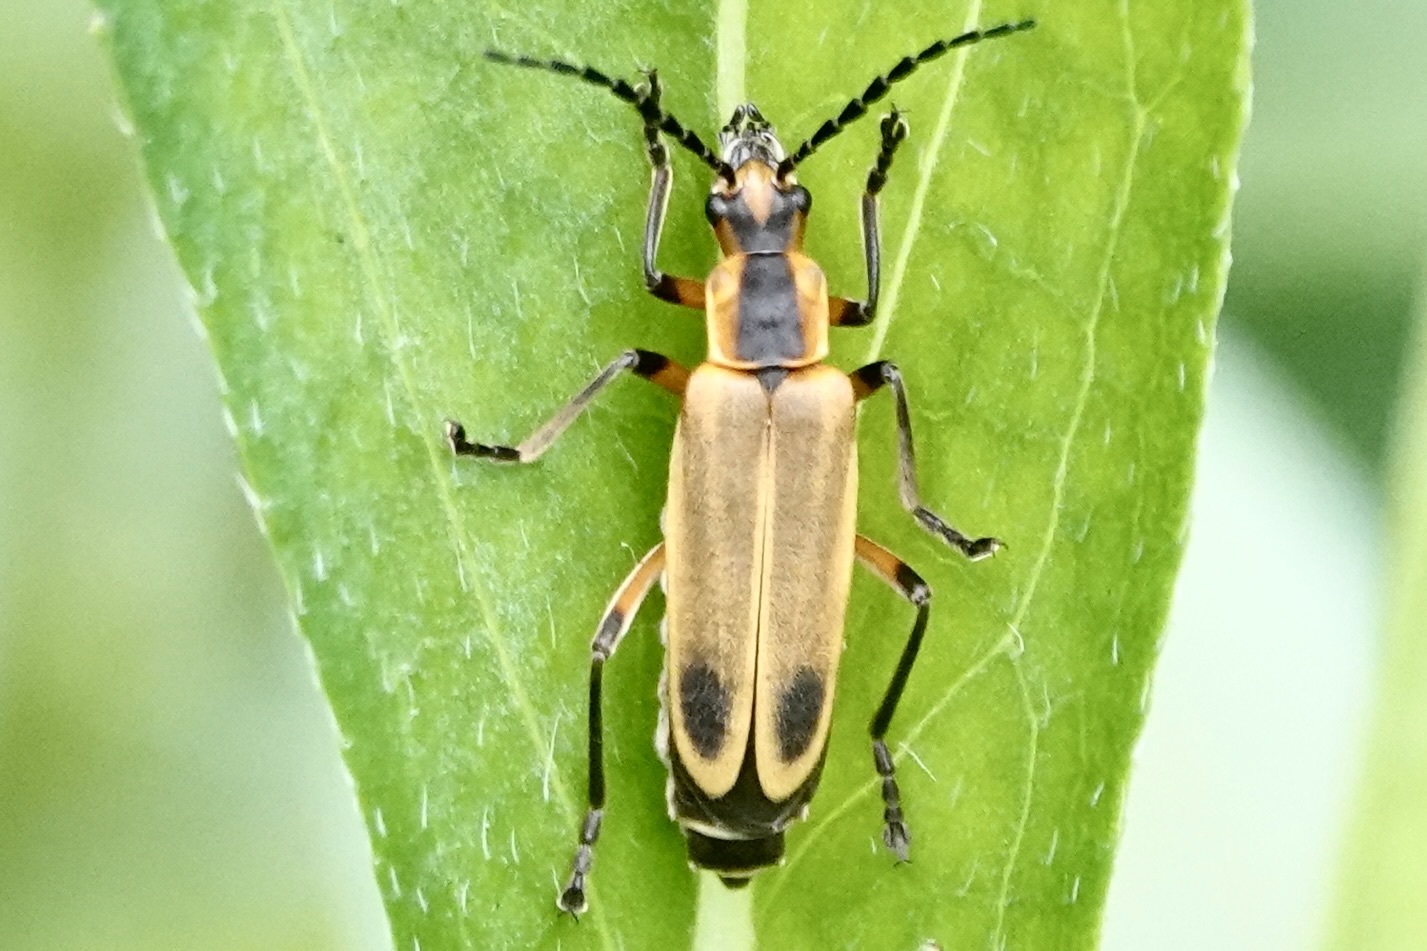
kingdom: Animalia
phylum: Arthropoda
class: Insecta
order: Coleoptera
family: Cantharidae
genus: Chauliognathus
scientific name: Chauliognathus marginatus
